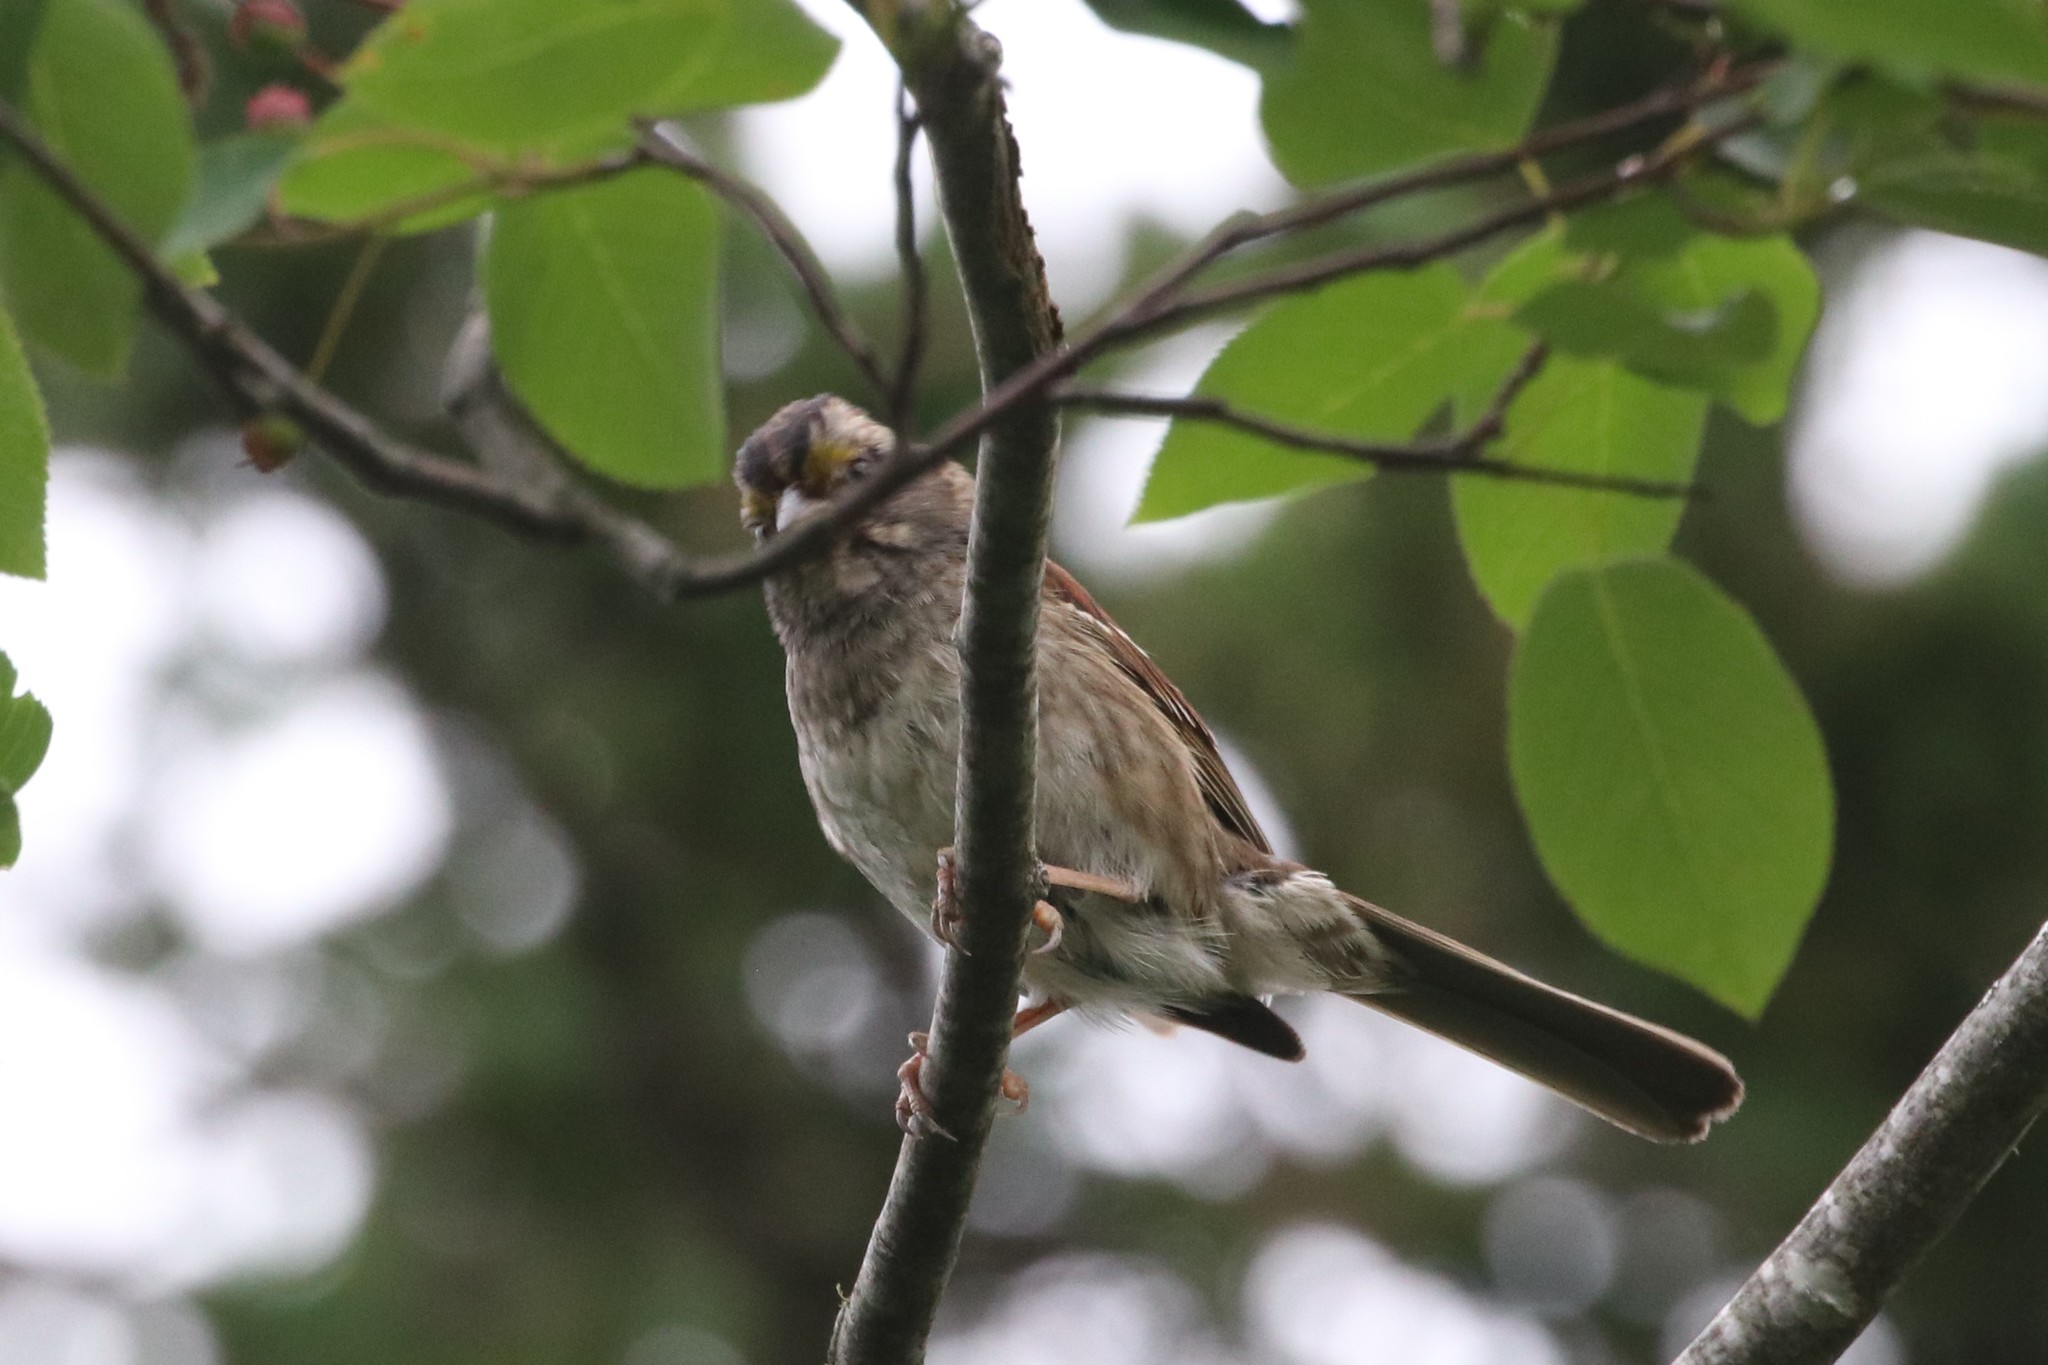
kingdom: Animalia
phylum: Chordata
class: Aves
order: Passeriformes
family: Passerellidae
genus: Zonotrichia
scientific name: Zonotrichia albicollis
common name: White-throated sparrow
